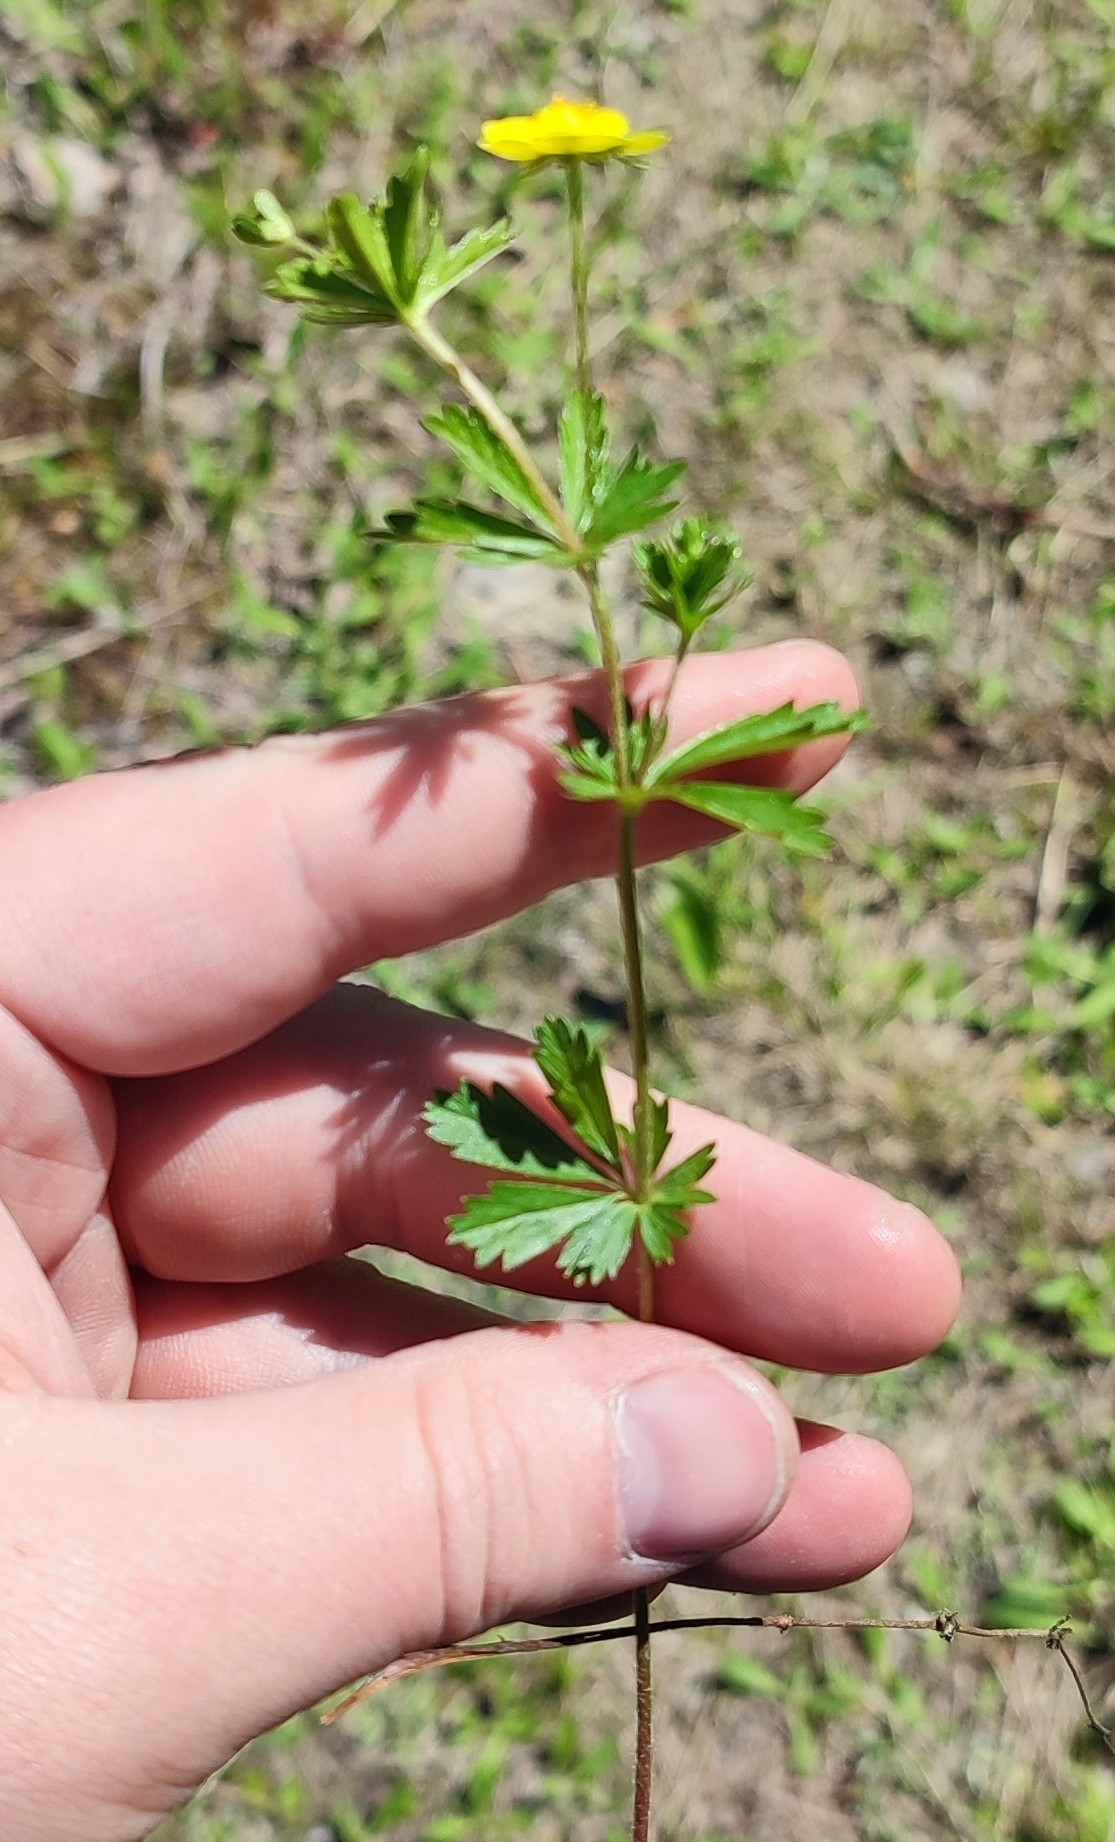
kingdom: Plantae
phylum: Tracheophyta
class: Magnoliopsida
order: Rosales
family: Rosaceae
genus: Potentilla
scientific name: Potentilla erecta
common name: Tormentil
